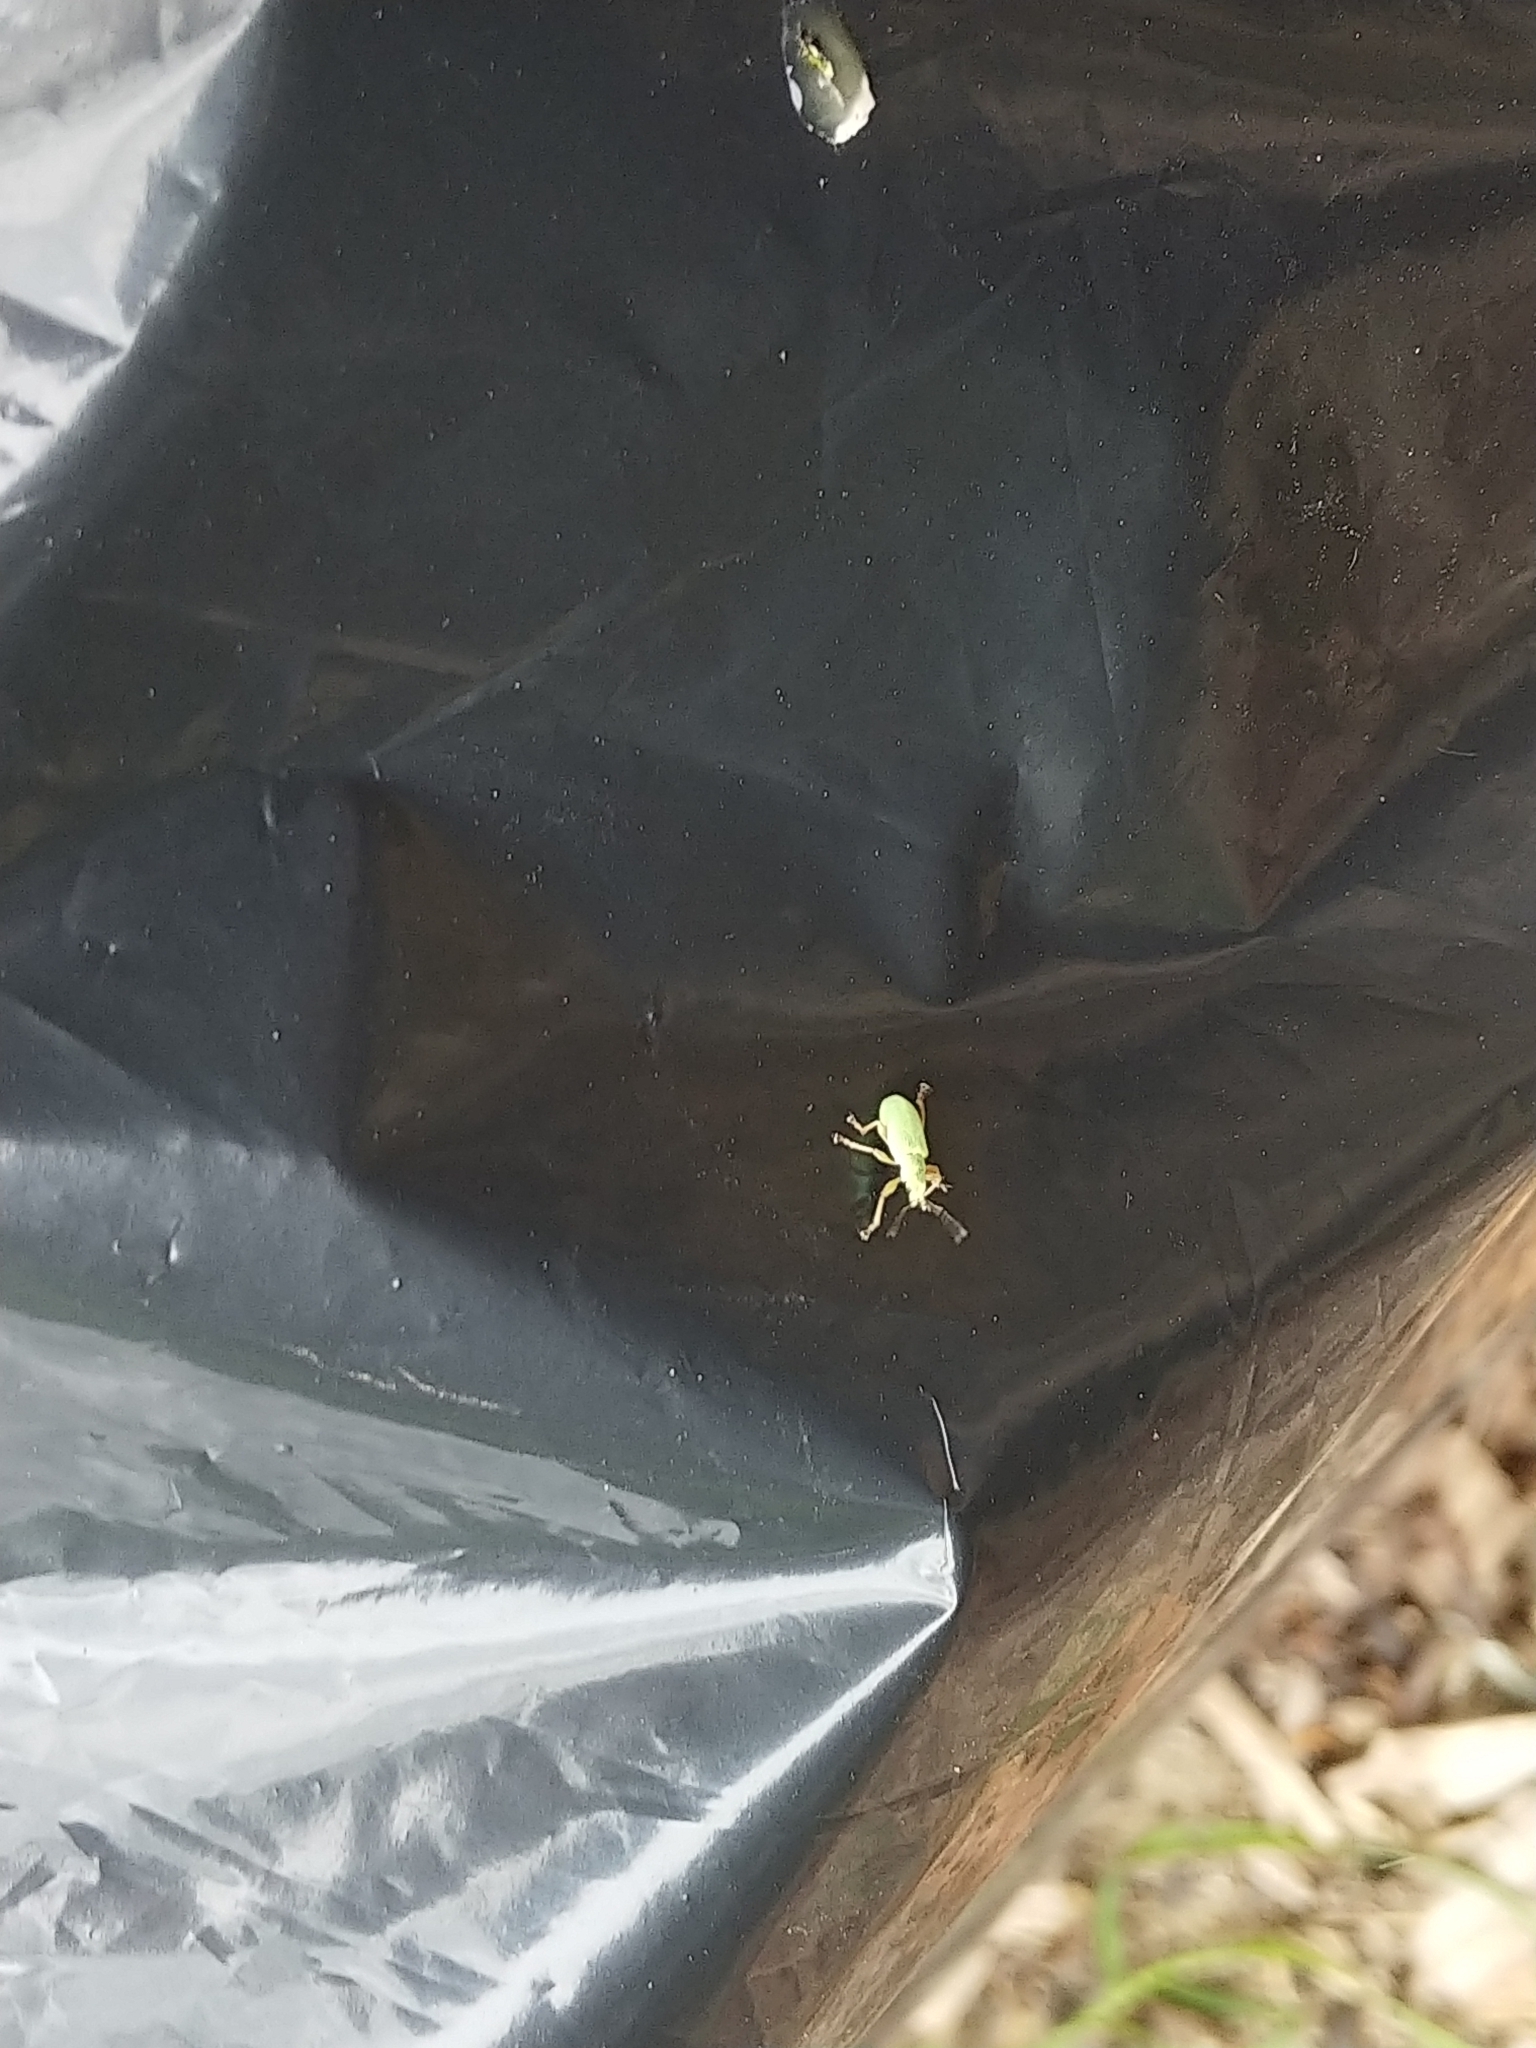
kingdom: Animalia
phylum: Arthropoda
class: Insecta
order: Coleoptera
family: Curculionidae
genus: Polydrusus
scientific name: Polydrusus impressifrons
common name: Weevil
